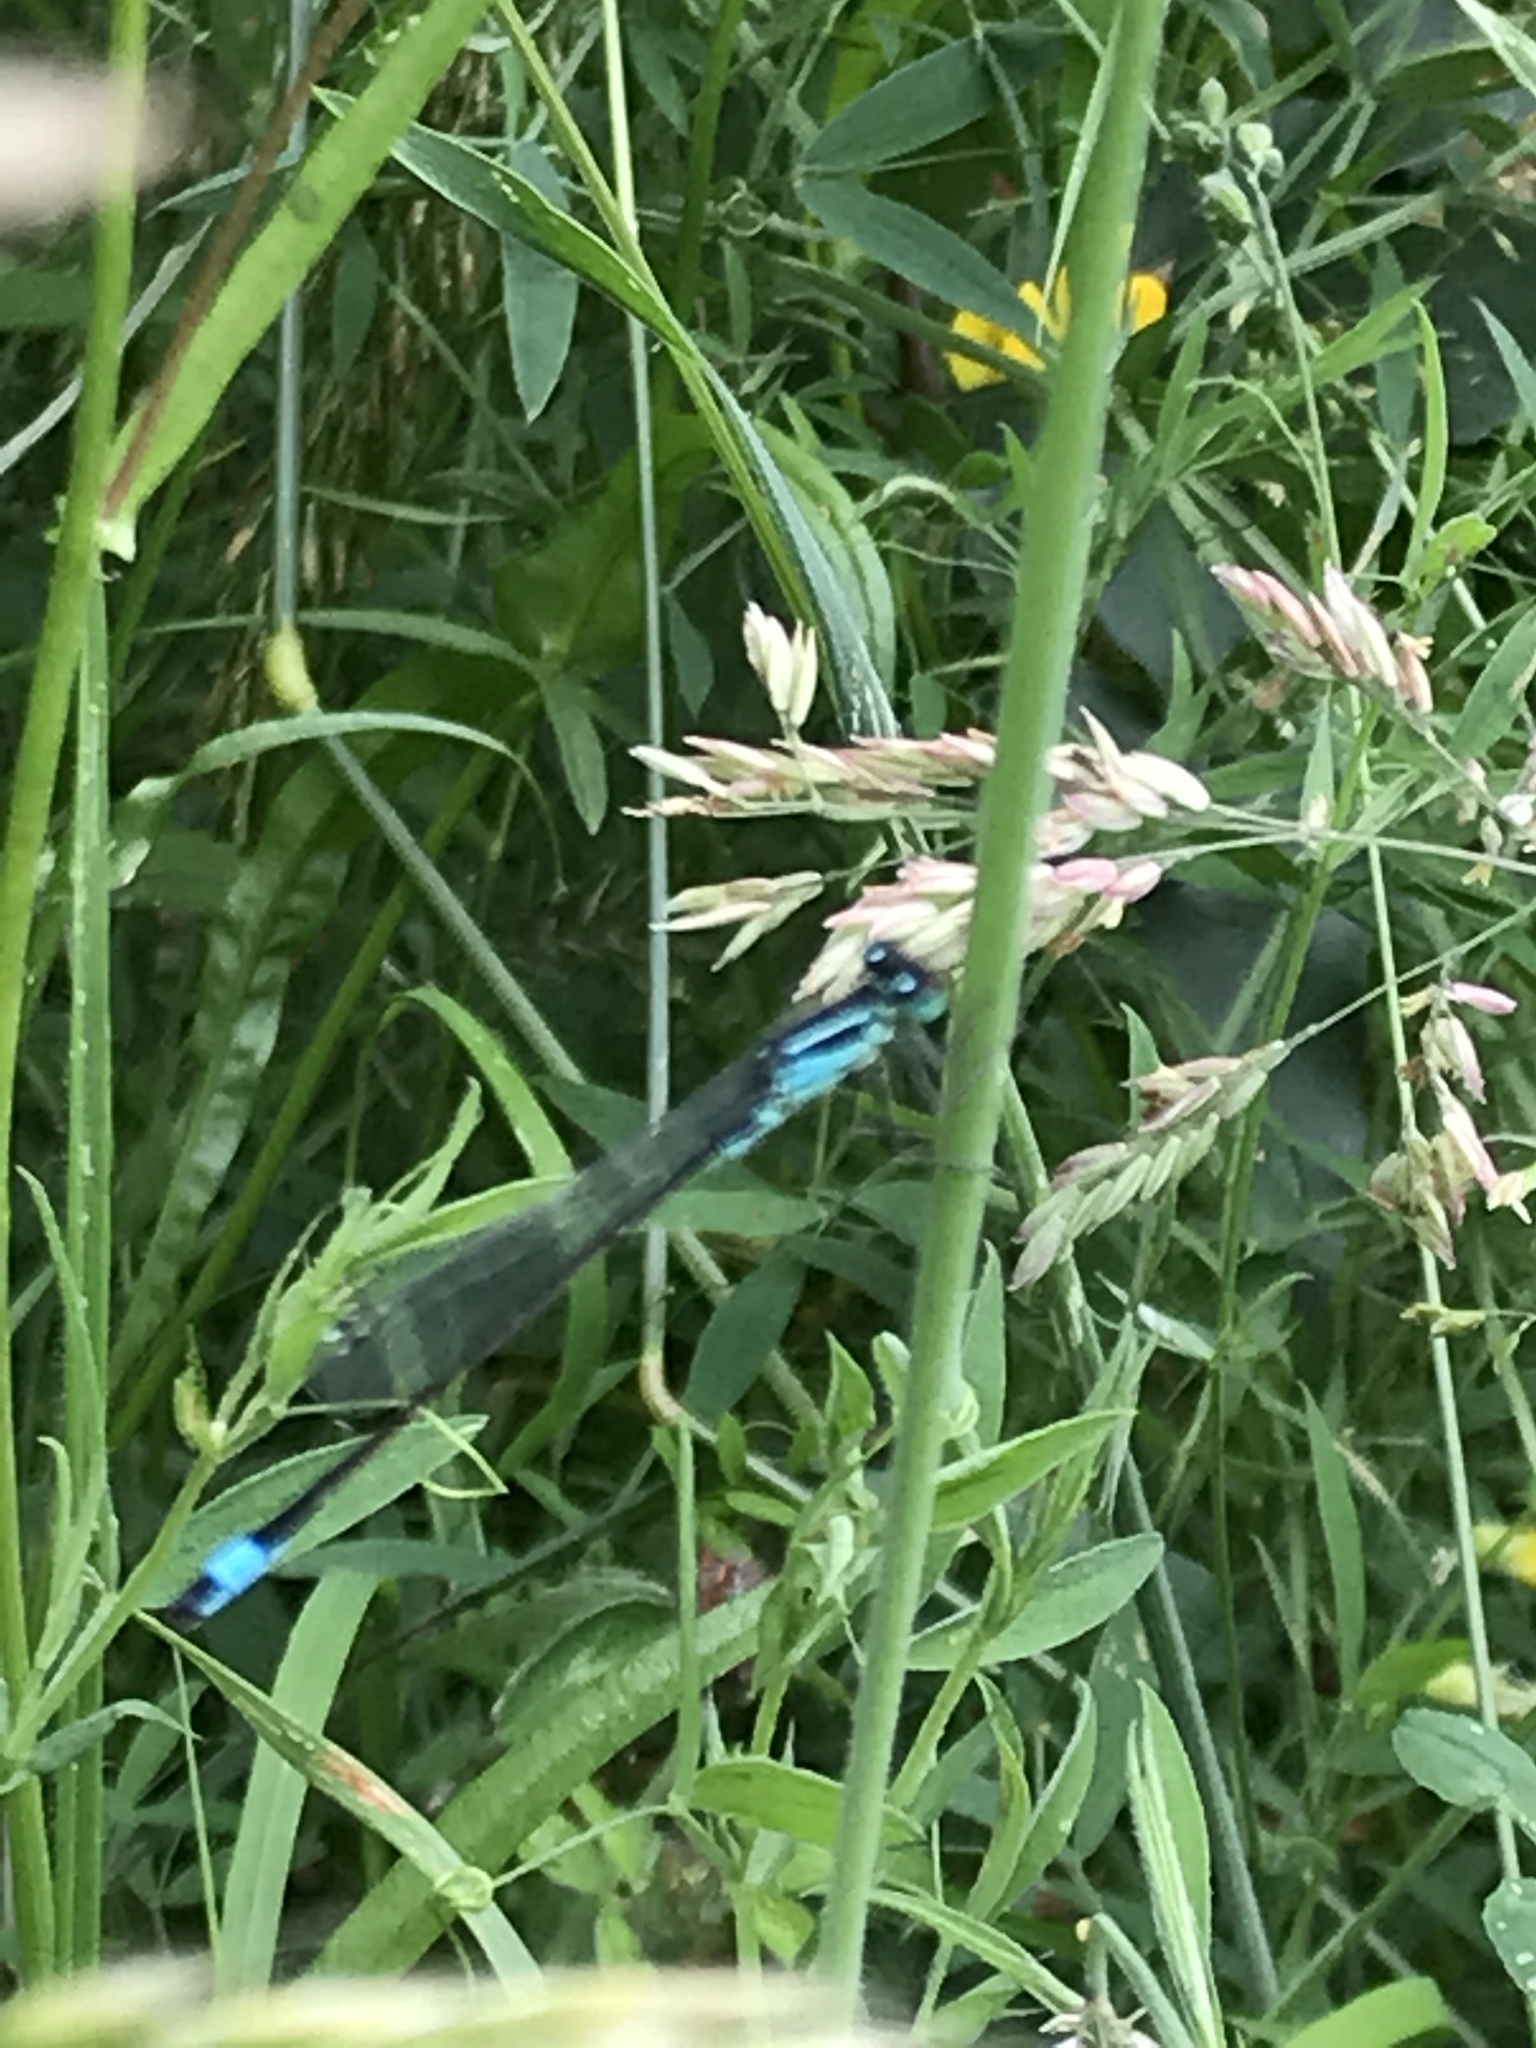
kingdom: Animalia
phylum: Arthropoda
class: Insecta
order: Odonata
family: Coenagrionidae
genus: Ischnura
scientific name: Ischnura elegans
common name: Blue-tailed damselfly
